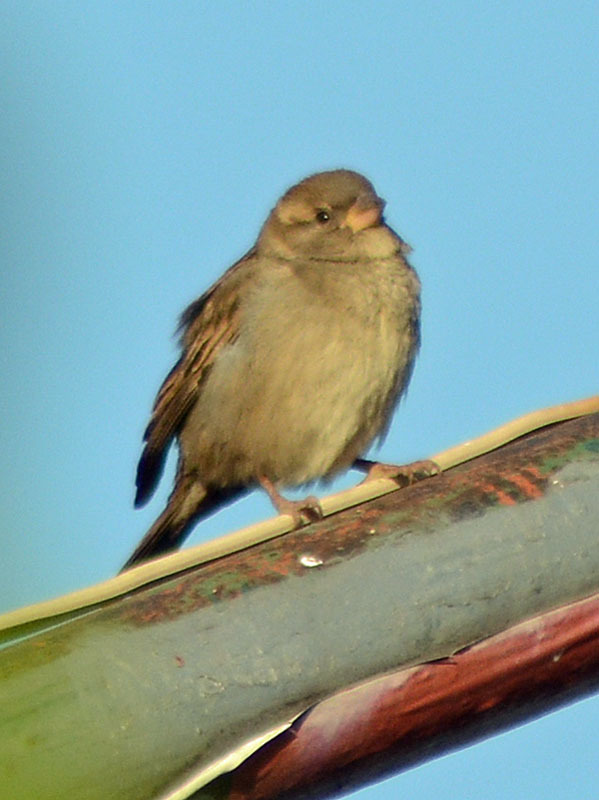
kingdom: Animalia
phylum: Chordata
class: Aves
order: Passeriformes
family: Passeridae
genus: Passer
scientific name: Passer domesticus
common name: House sparrow
